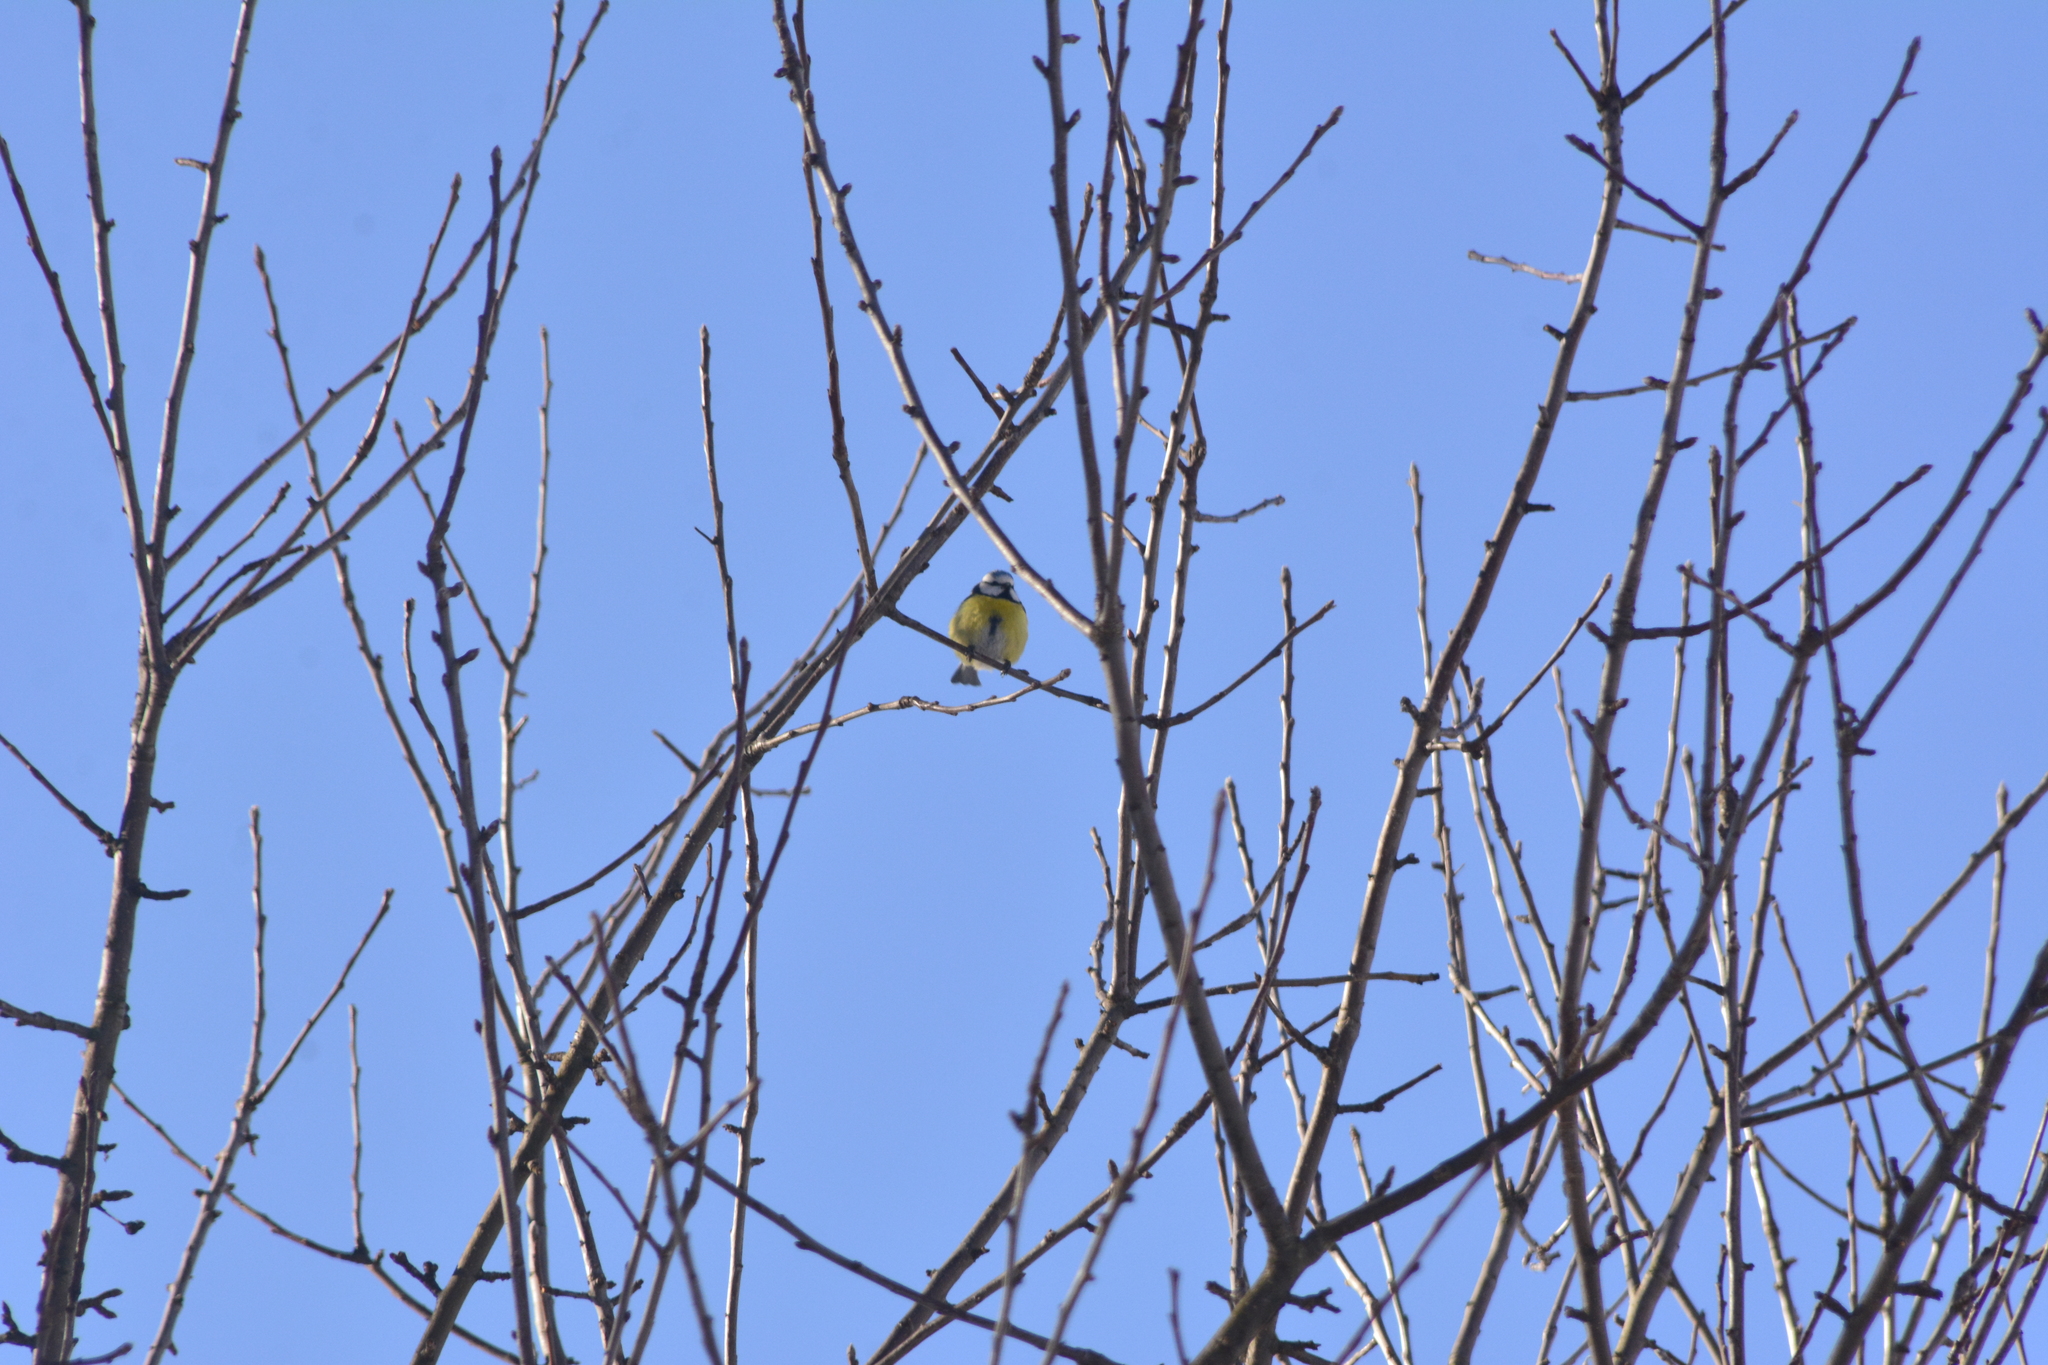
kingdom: Animalia
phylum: Chordata
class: Aves
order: Passeriformes
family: Paridae
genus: Cyanistes
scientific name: Cyanistes caeruleus
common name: Eurasian blue tit
